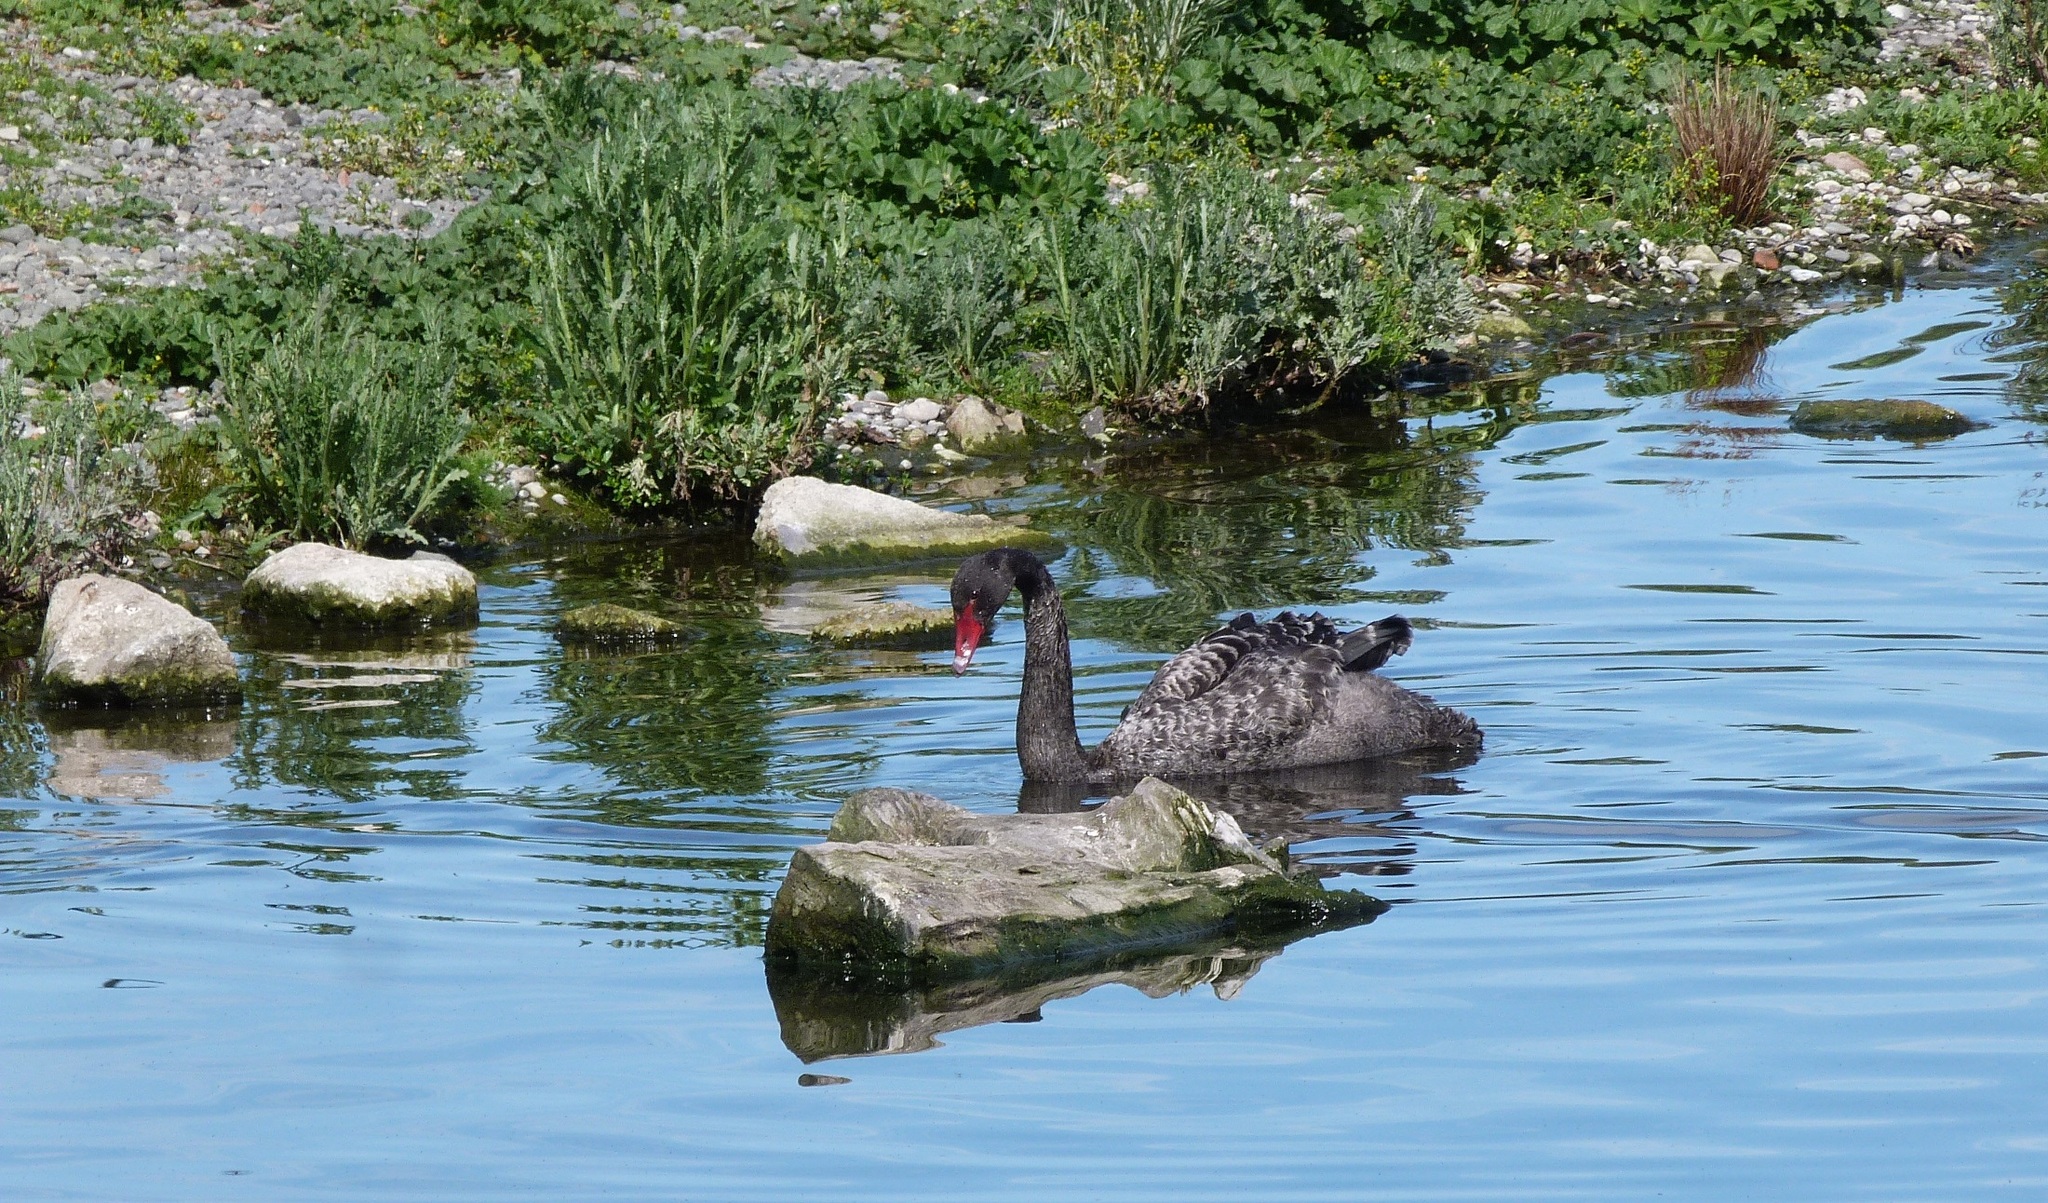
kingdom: Animalia
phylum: Chordata
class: Aves
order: Anseriformes
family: Anatidae
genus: Cygnus
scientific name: Cygnus atratus
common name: Black swan
